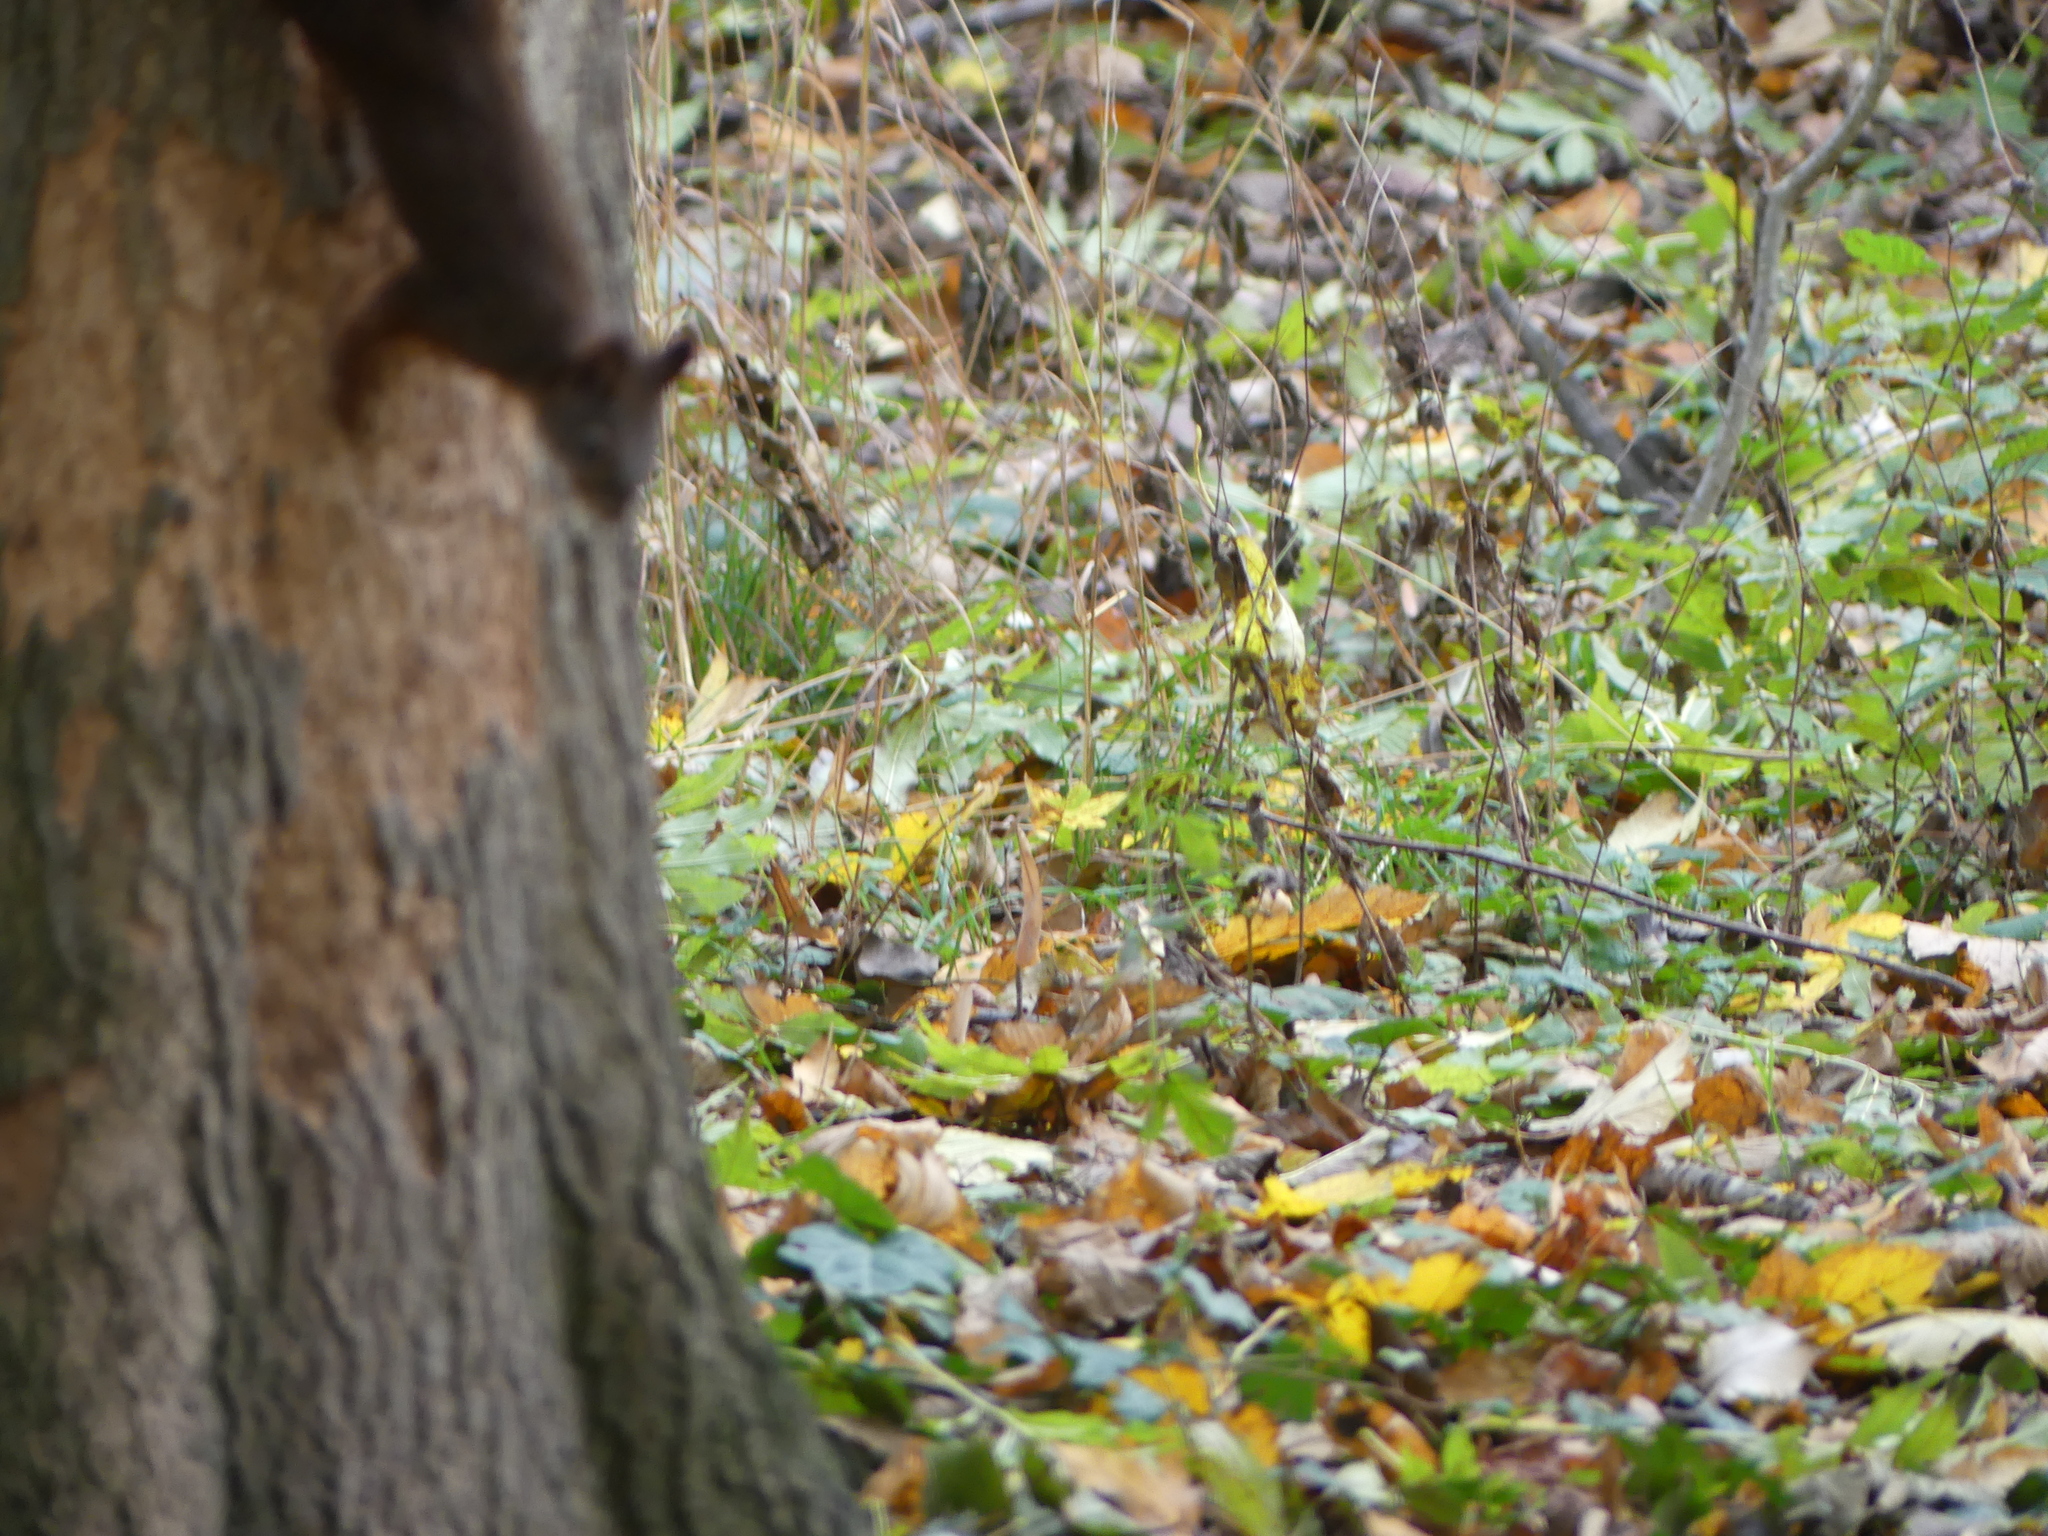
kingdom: Animalia
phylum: Chordata
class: Mammalia
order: Rodentia
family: Sciuridae
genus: Sciurus
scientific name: Sciurus vulgaris
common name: Eurasian red squirrel
